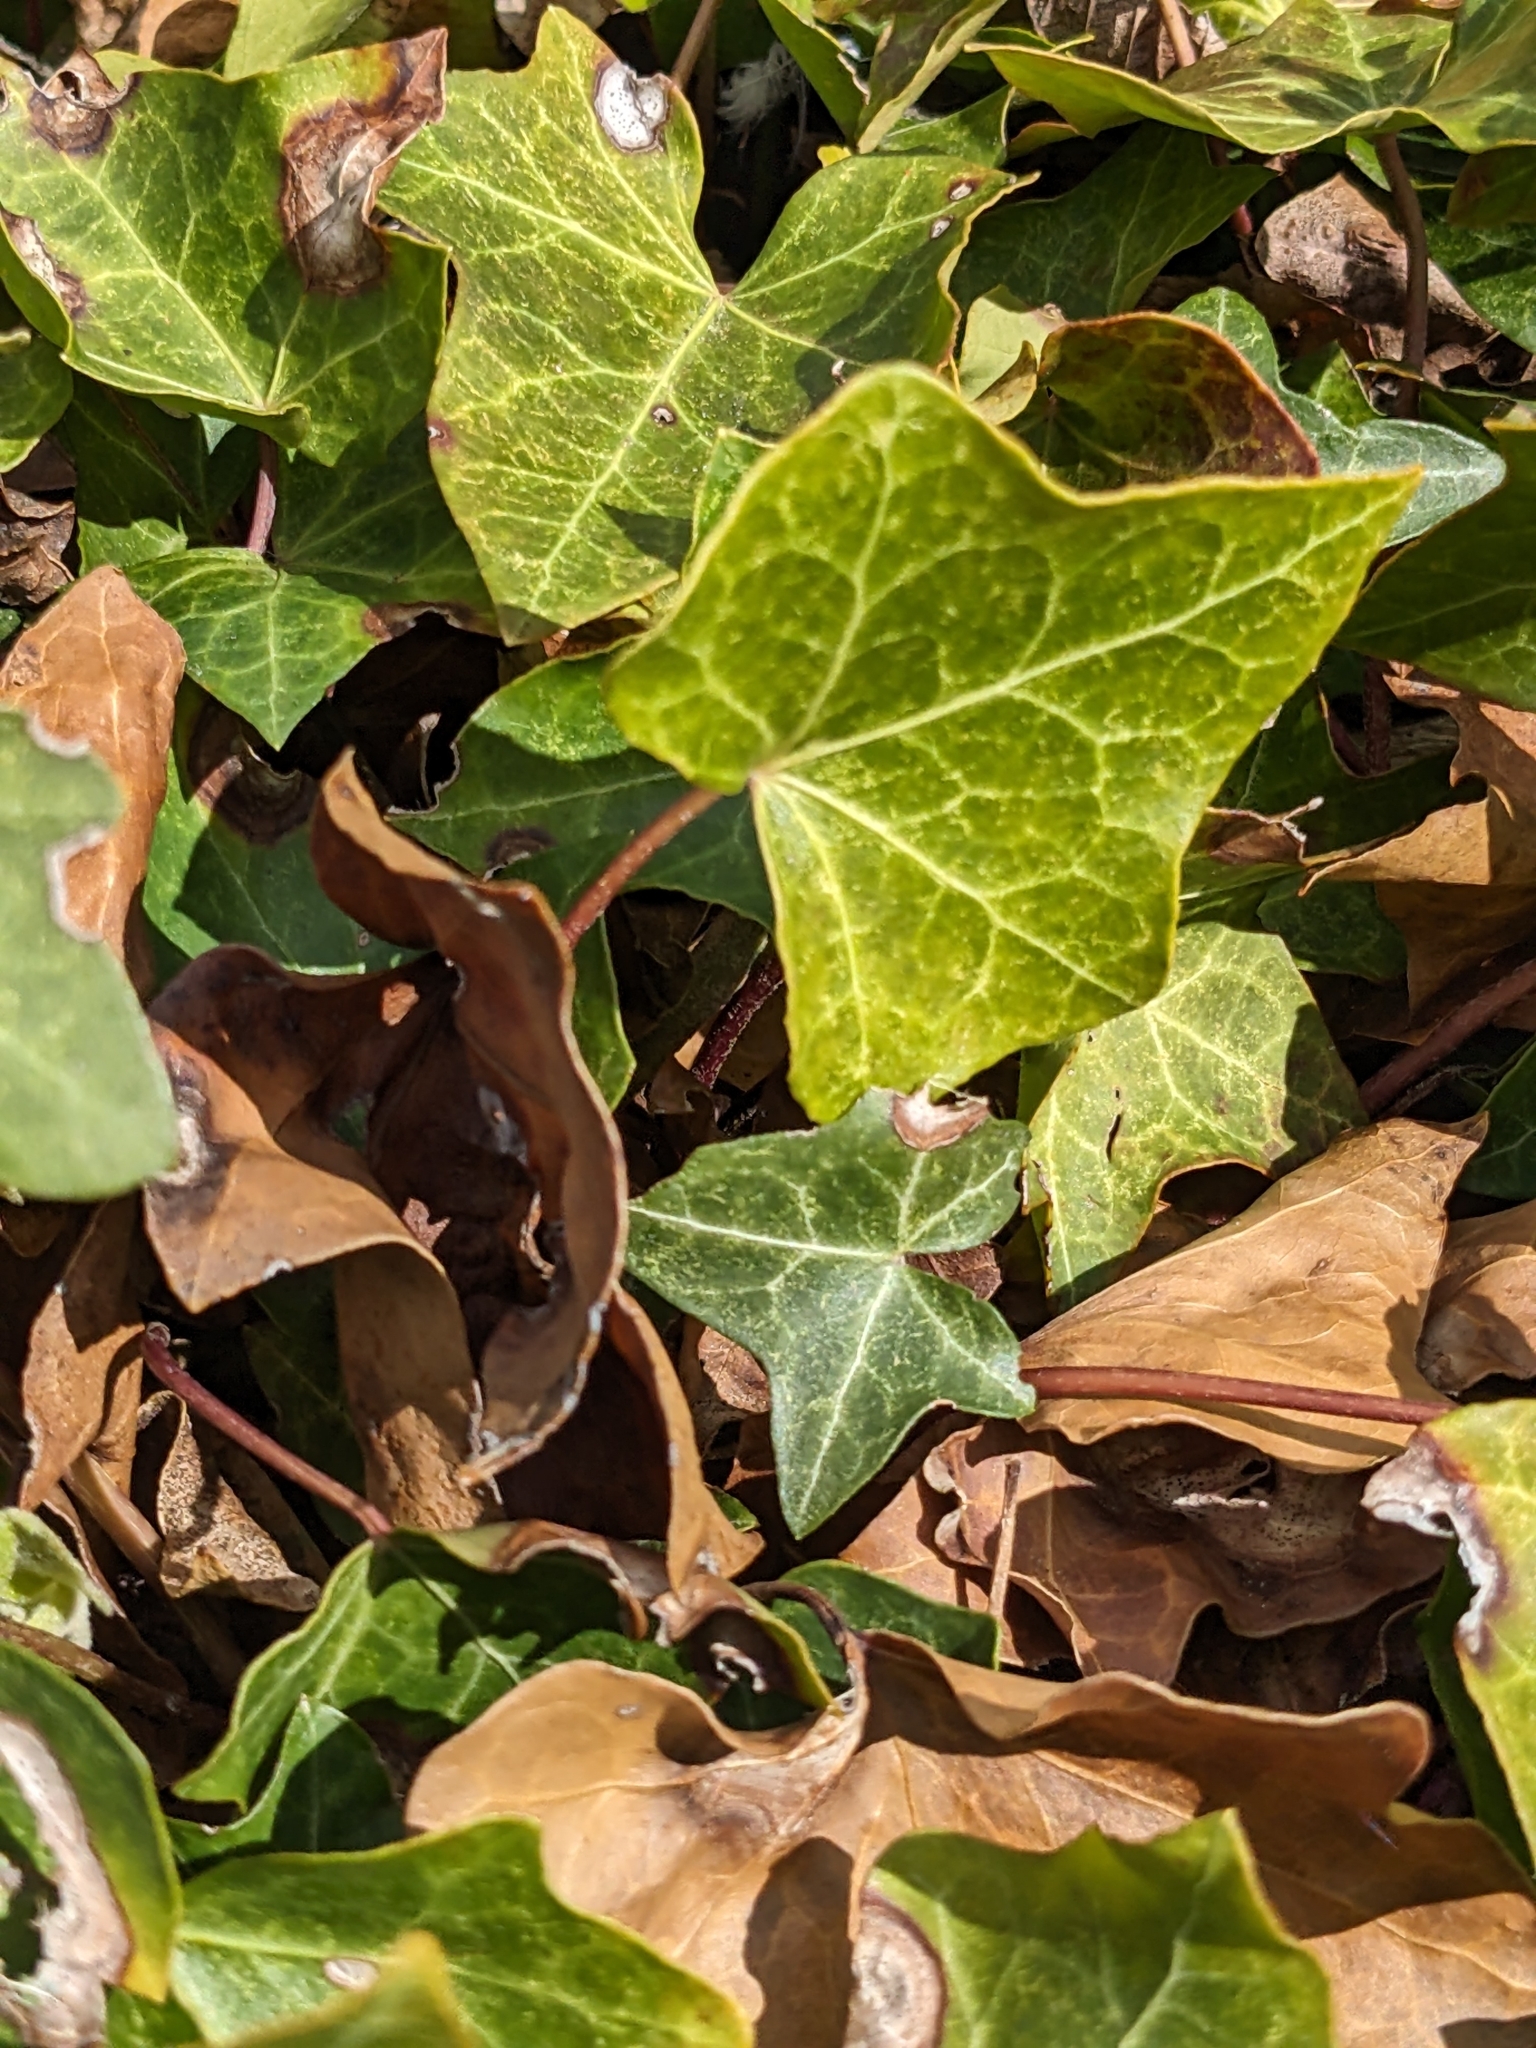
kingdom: Plantae
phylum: Tracheophyta
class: Magnoliopsida
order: Apiales
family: Araliaceae
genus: Hedera
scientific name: Hedera
